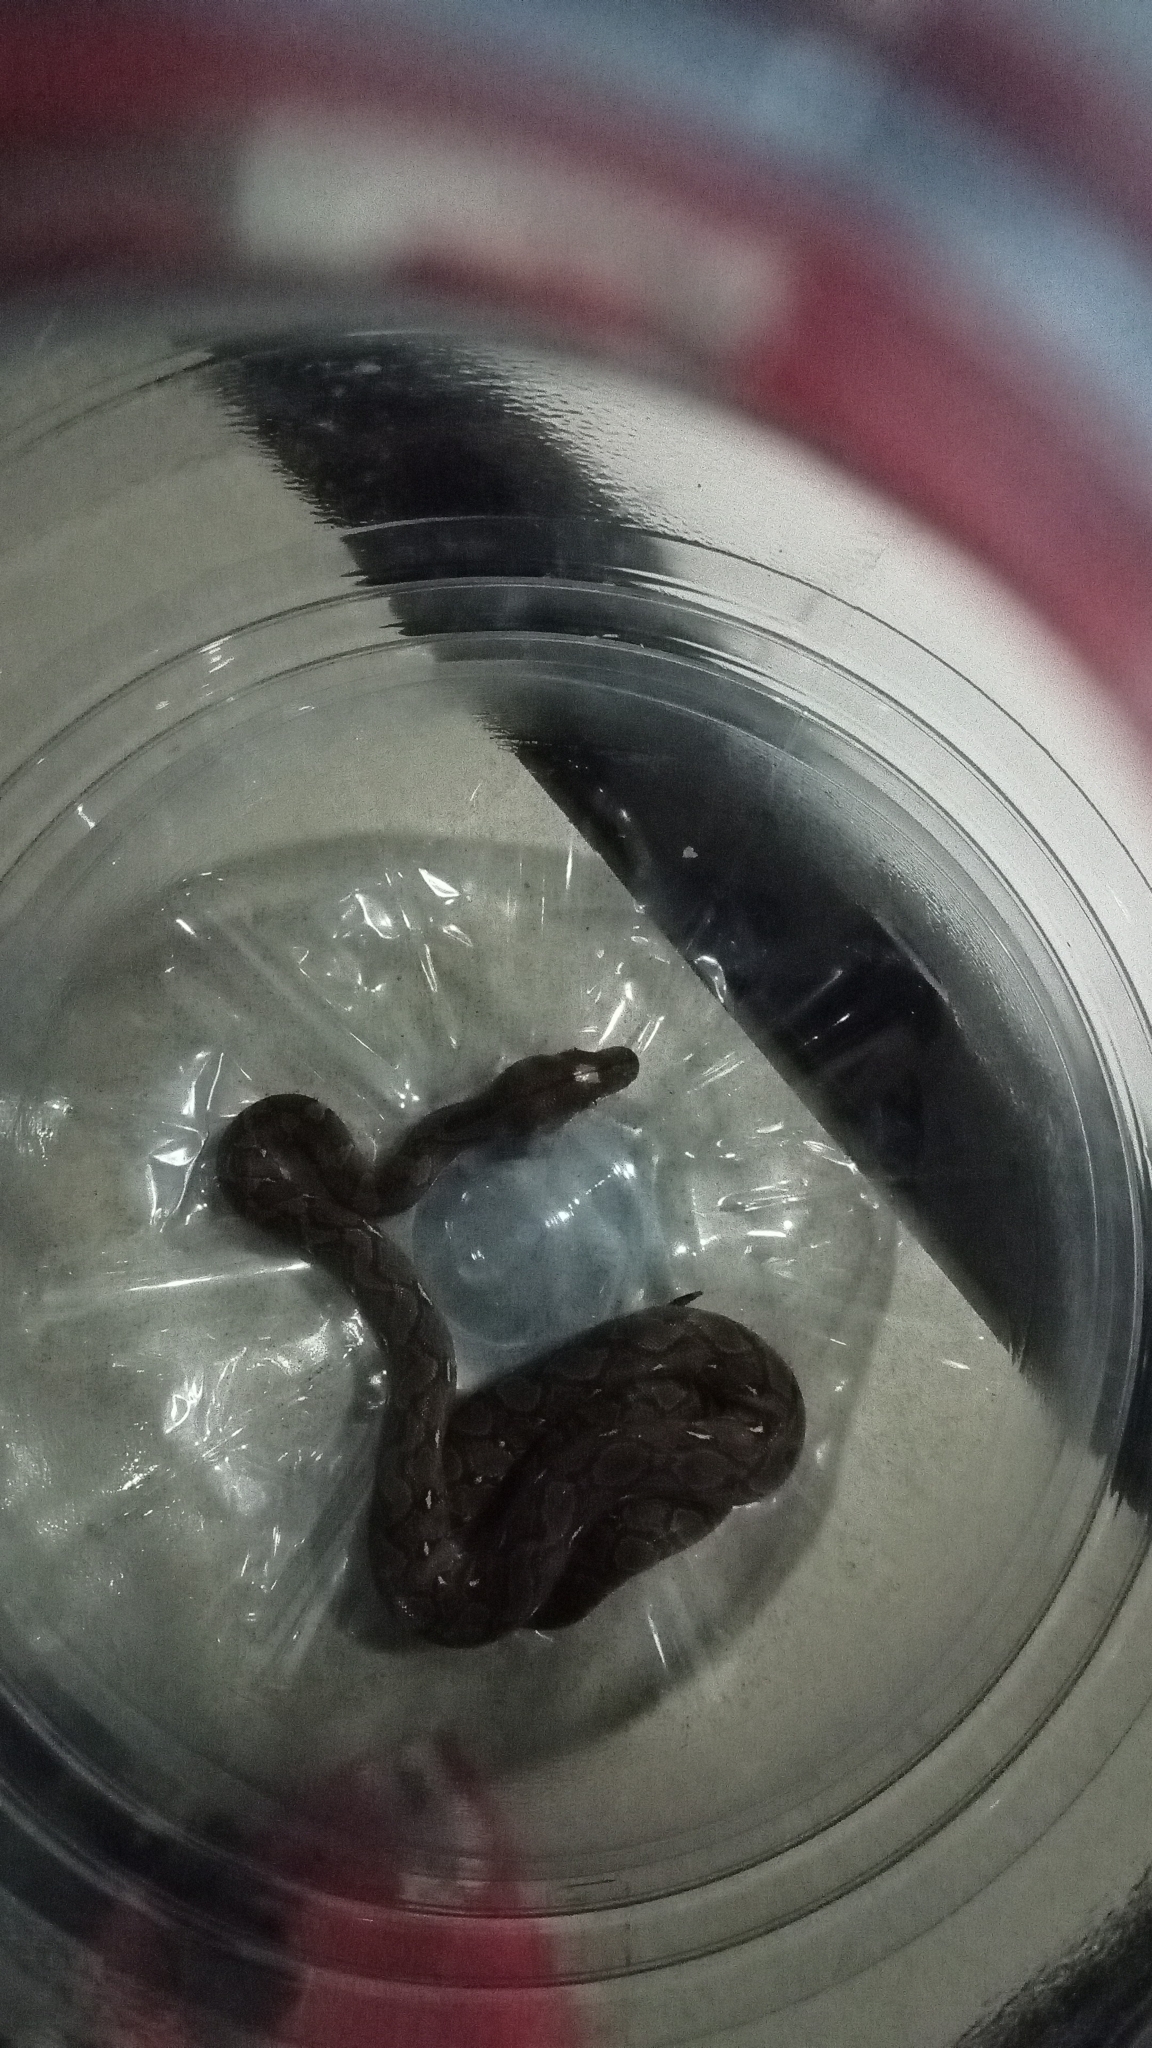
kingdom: Animalia
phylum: Chordata
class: Squamata
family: Pythonidae
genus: Malayopython
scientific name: Malayopython reticulatus
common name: Reticulated python
